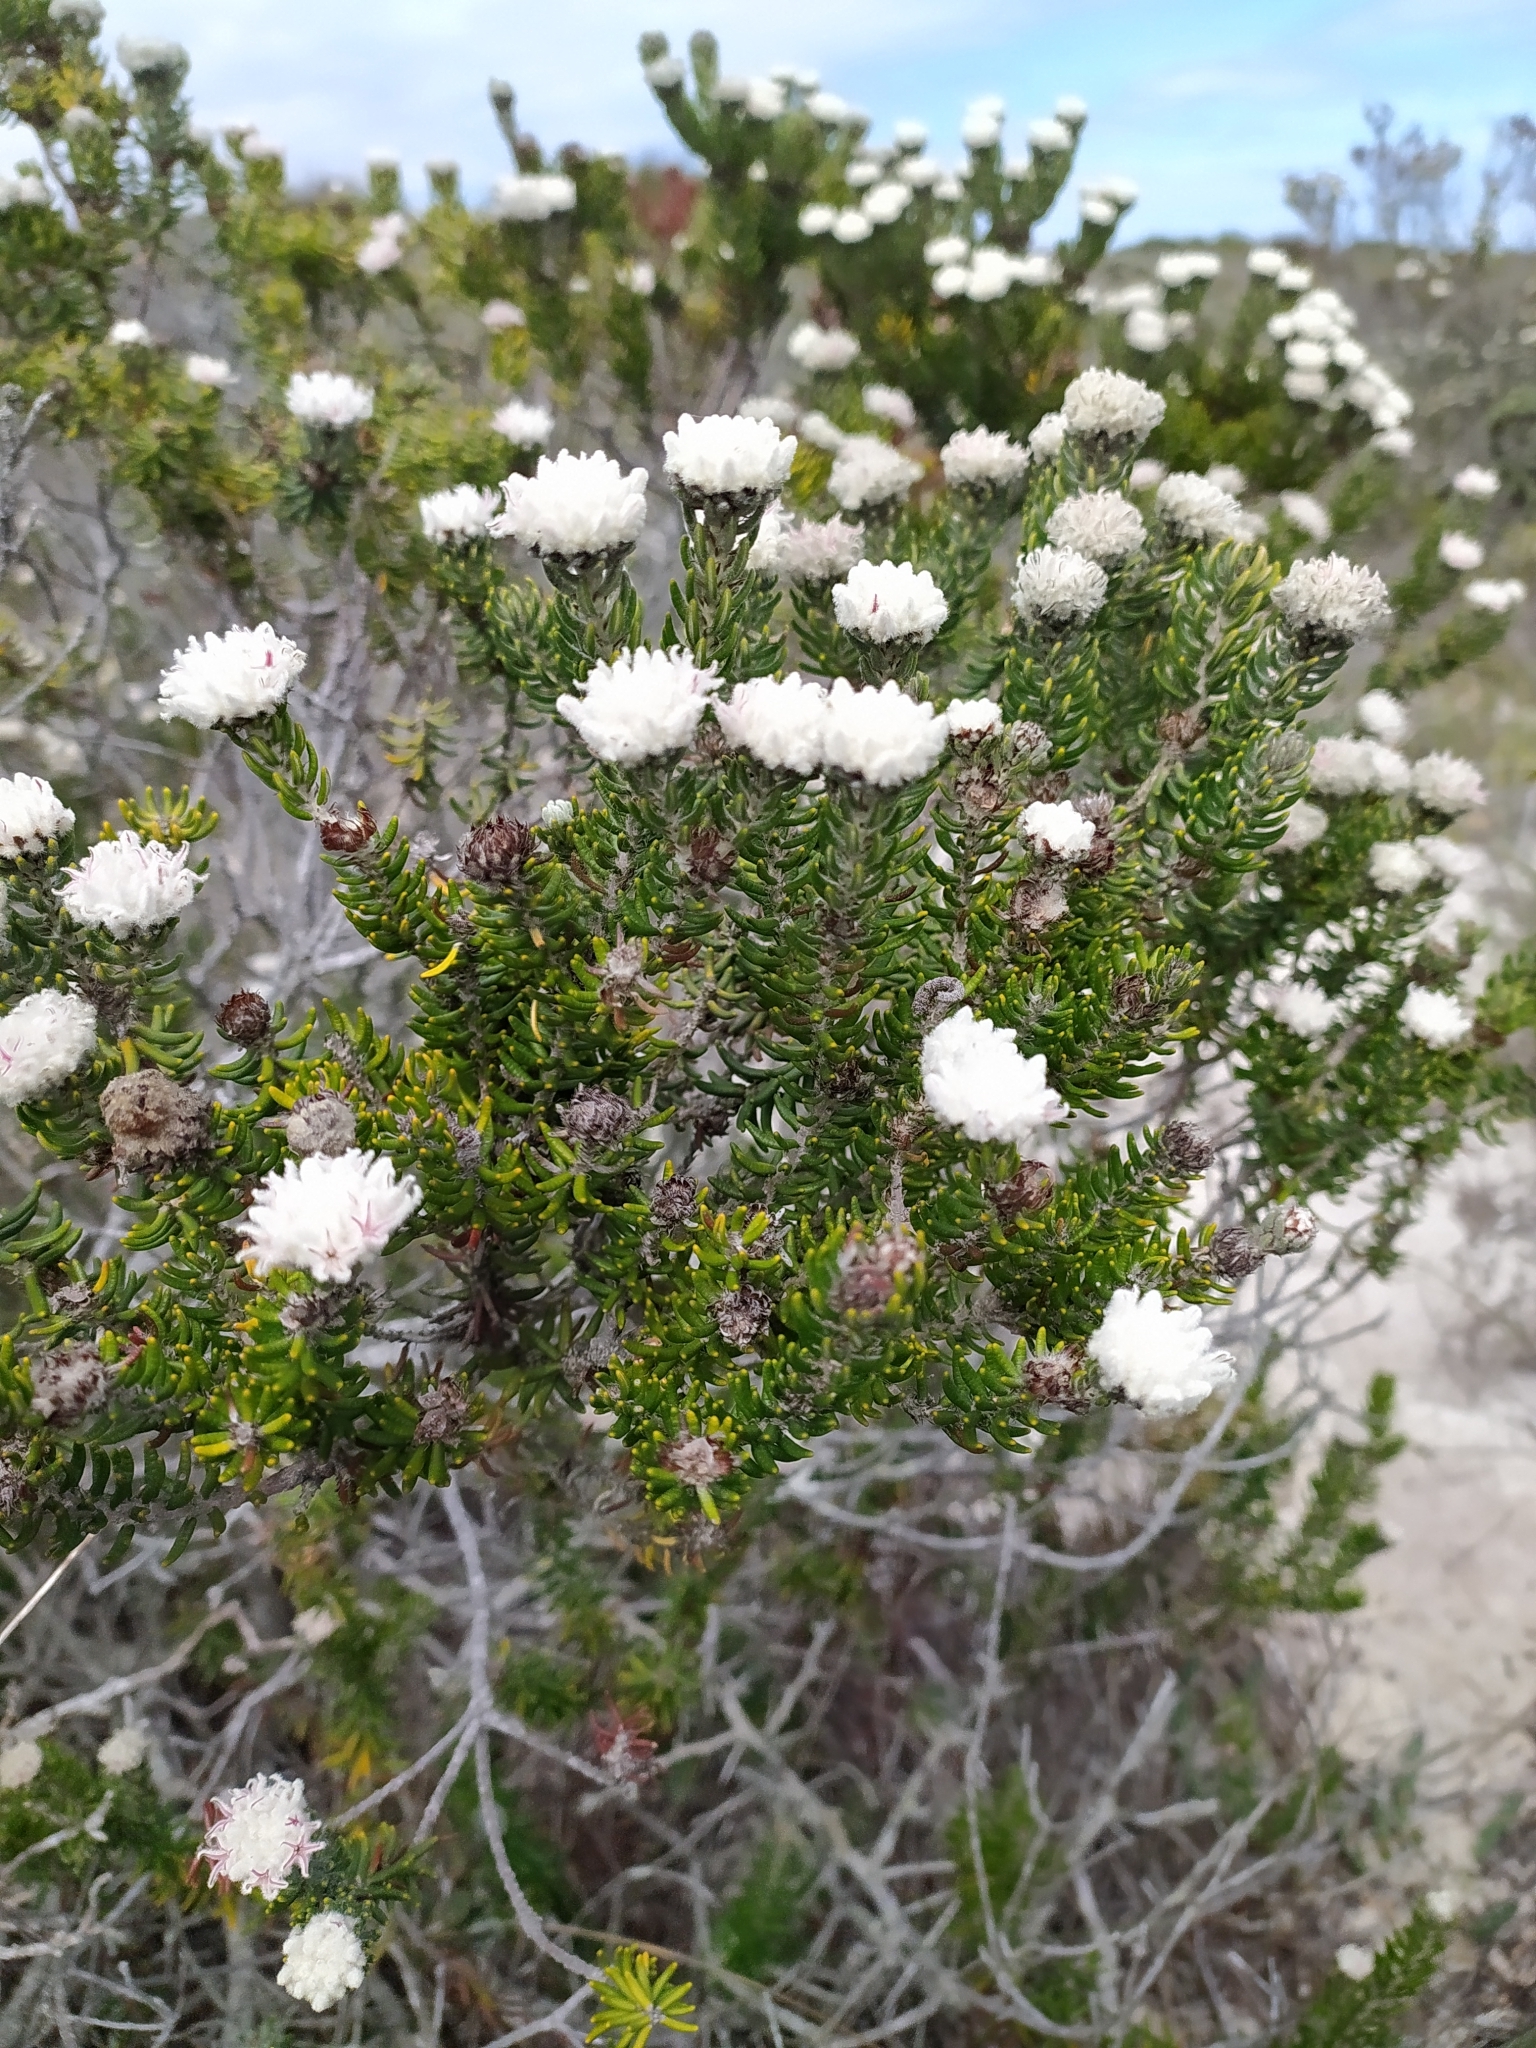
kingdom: Plantae
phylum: Tracheophyta
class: Magnoliopsida
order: Rosales
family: Rhamnaceae
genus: Trichocephalus
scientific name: Trichocephalus stipularis
